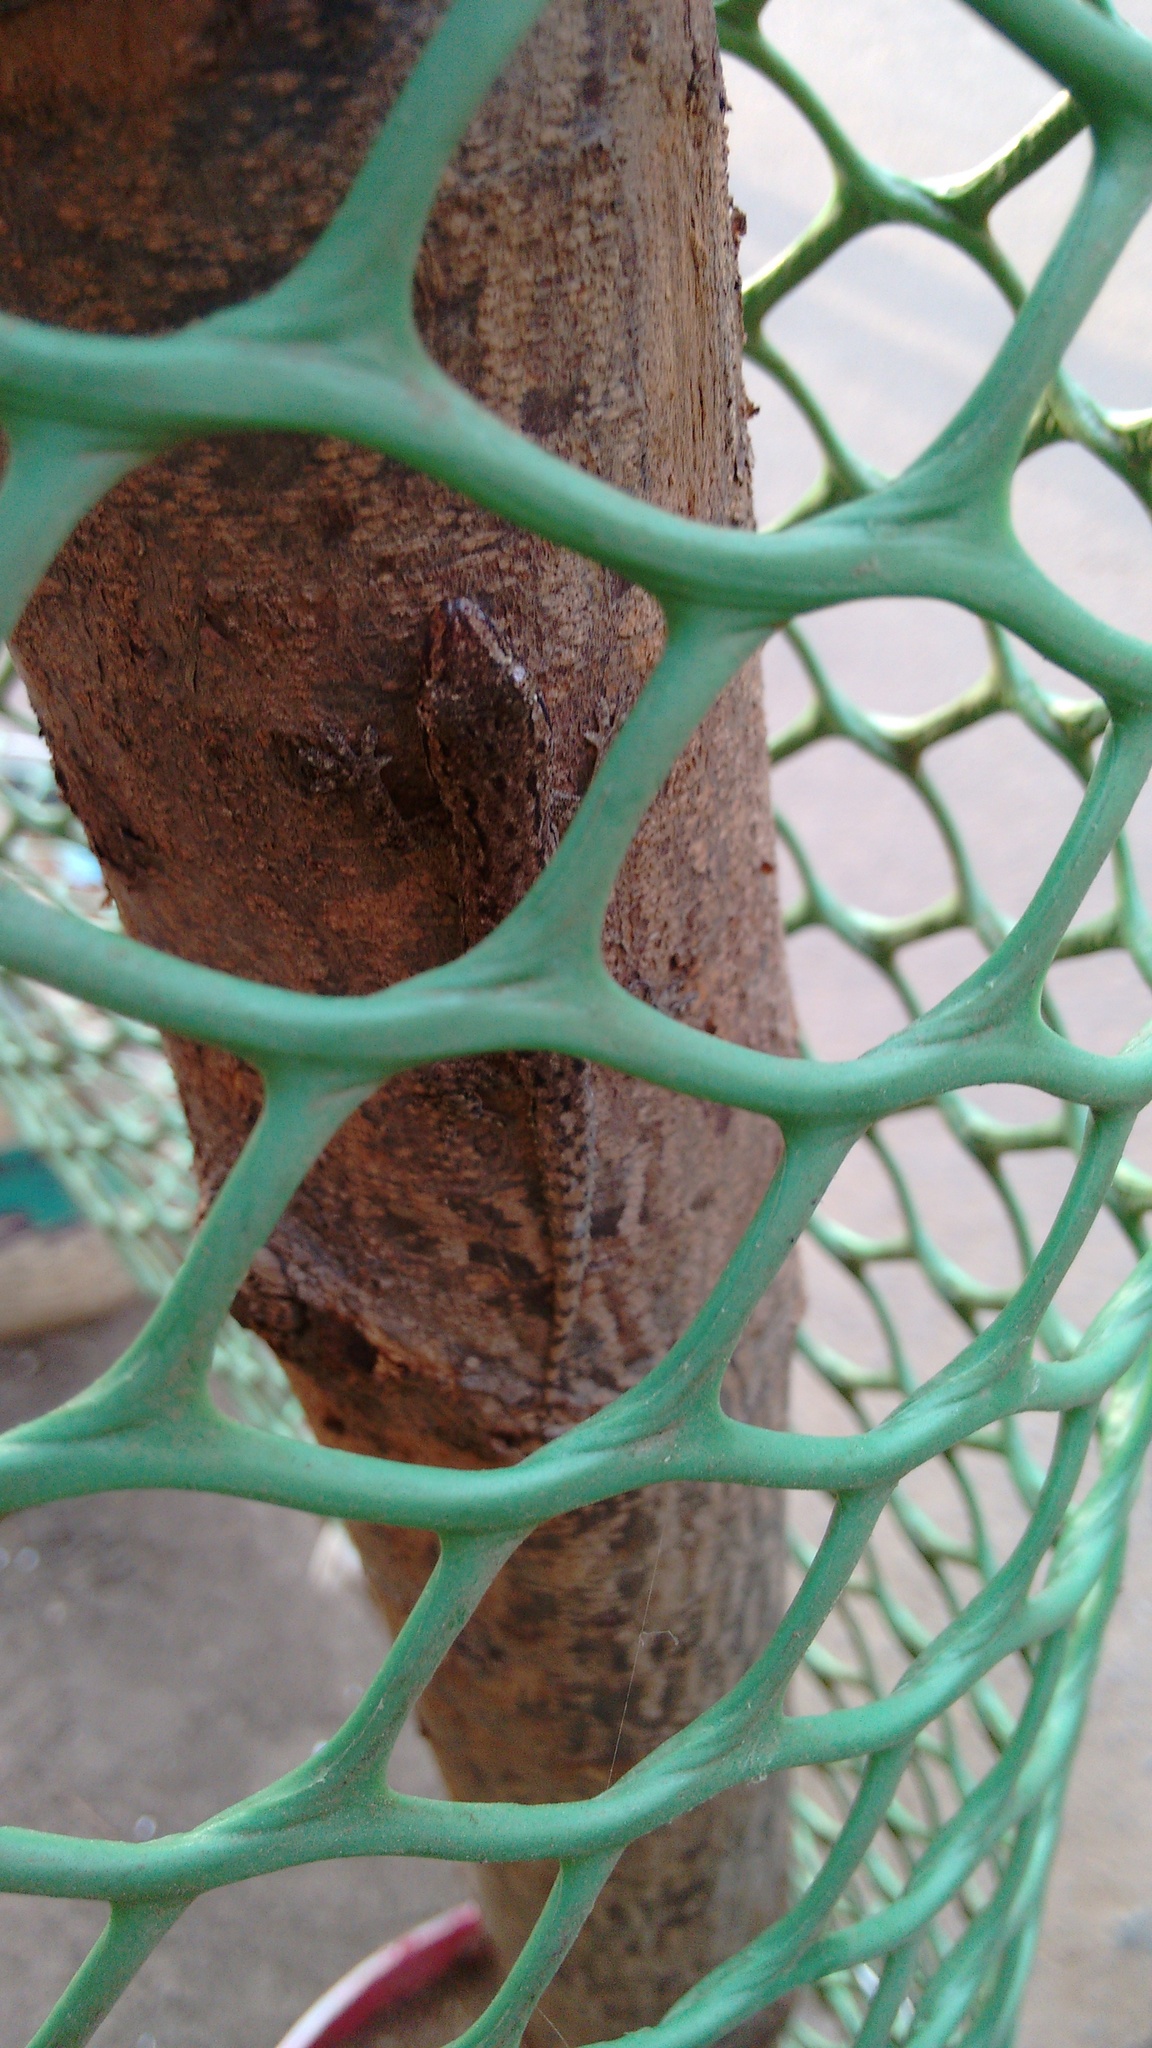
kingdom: Animalia
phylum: Chordata
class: Squamata
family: Gekkonidae
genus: Hemidactylus
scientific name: Hemidactylus frenatus
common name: Common house gecko
